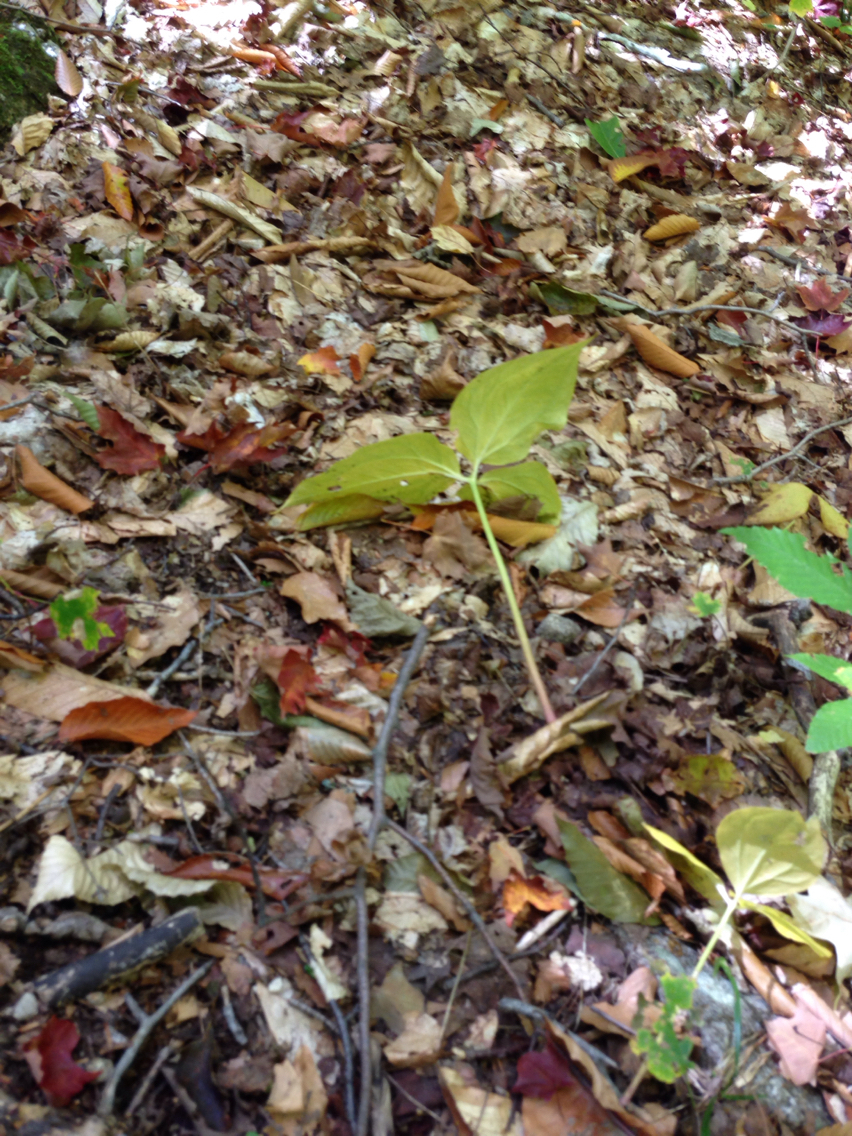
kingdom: Plantae
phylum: Tracheophyta
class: Liliopsida
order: Liliales
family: Melanthiaceae
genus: Trillium
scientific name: Trillium undulatum
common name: Paint trillium
